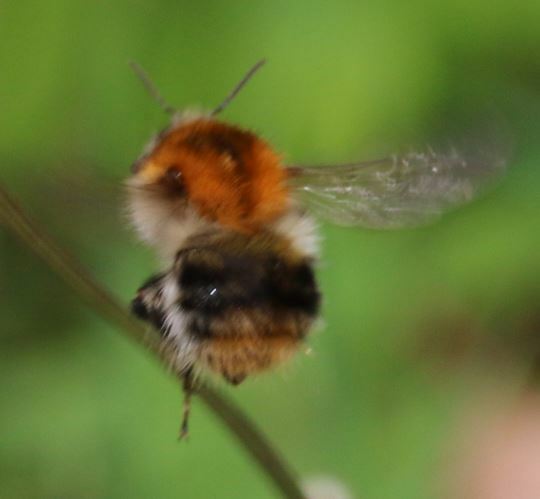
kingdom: Animalia
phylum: Arthropoda
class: Insecta
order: Hymenoptera
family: Apidae
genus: Bombus
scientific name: Bombus pascuorum
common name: Common carder bee
